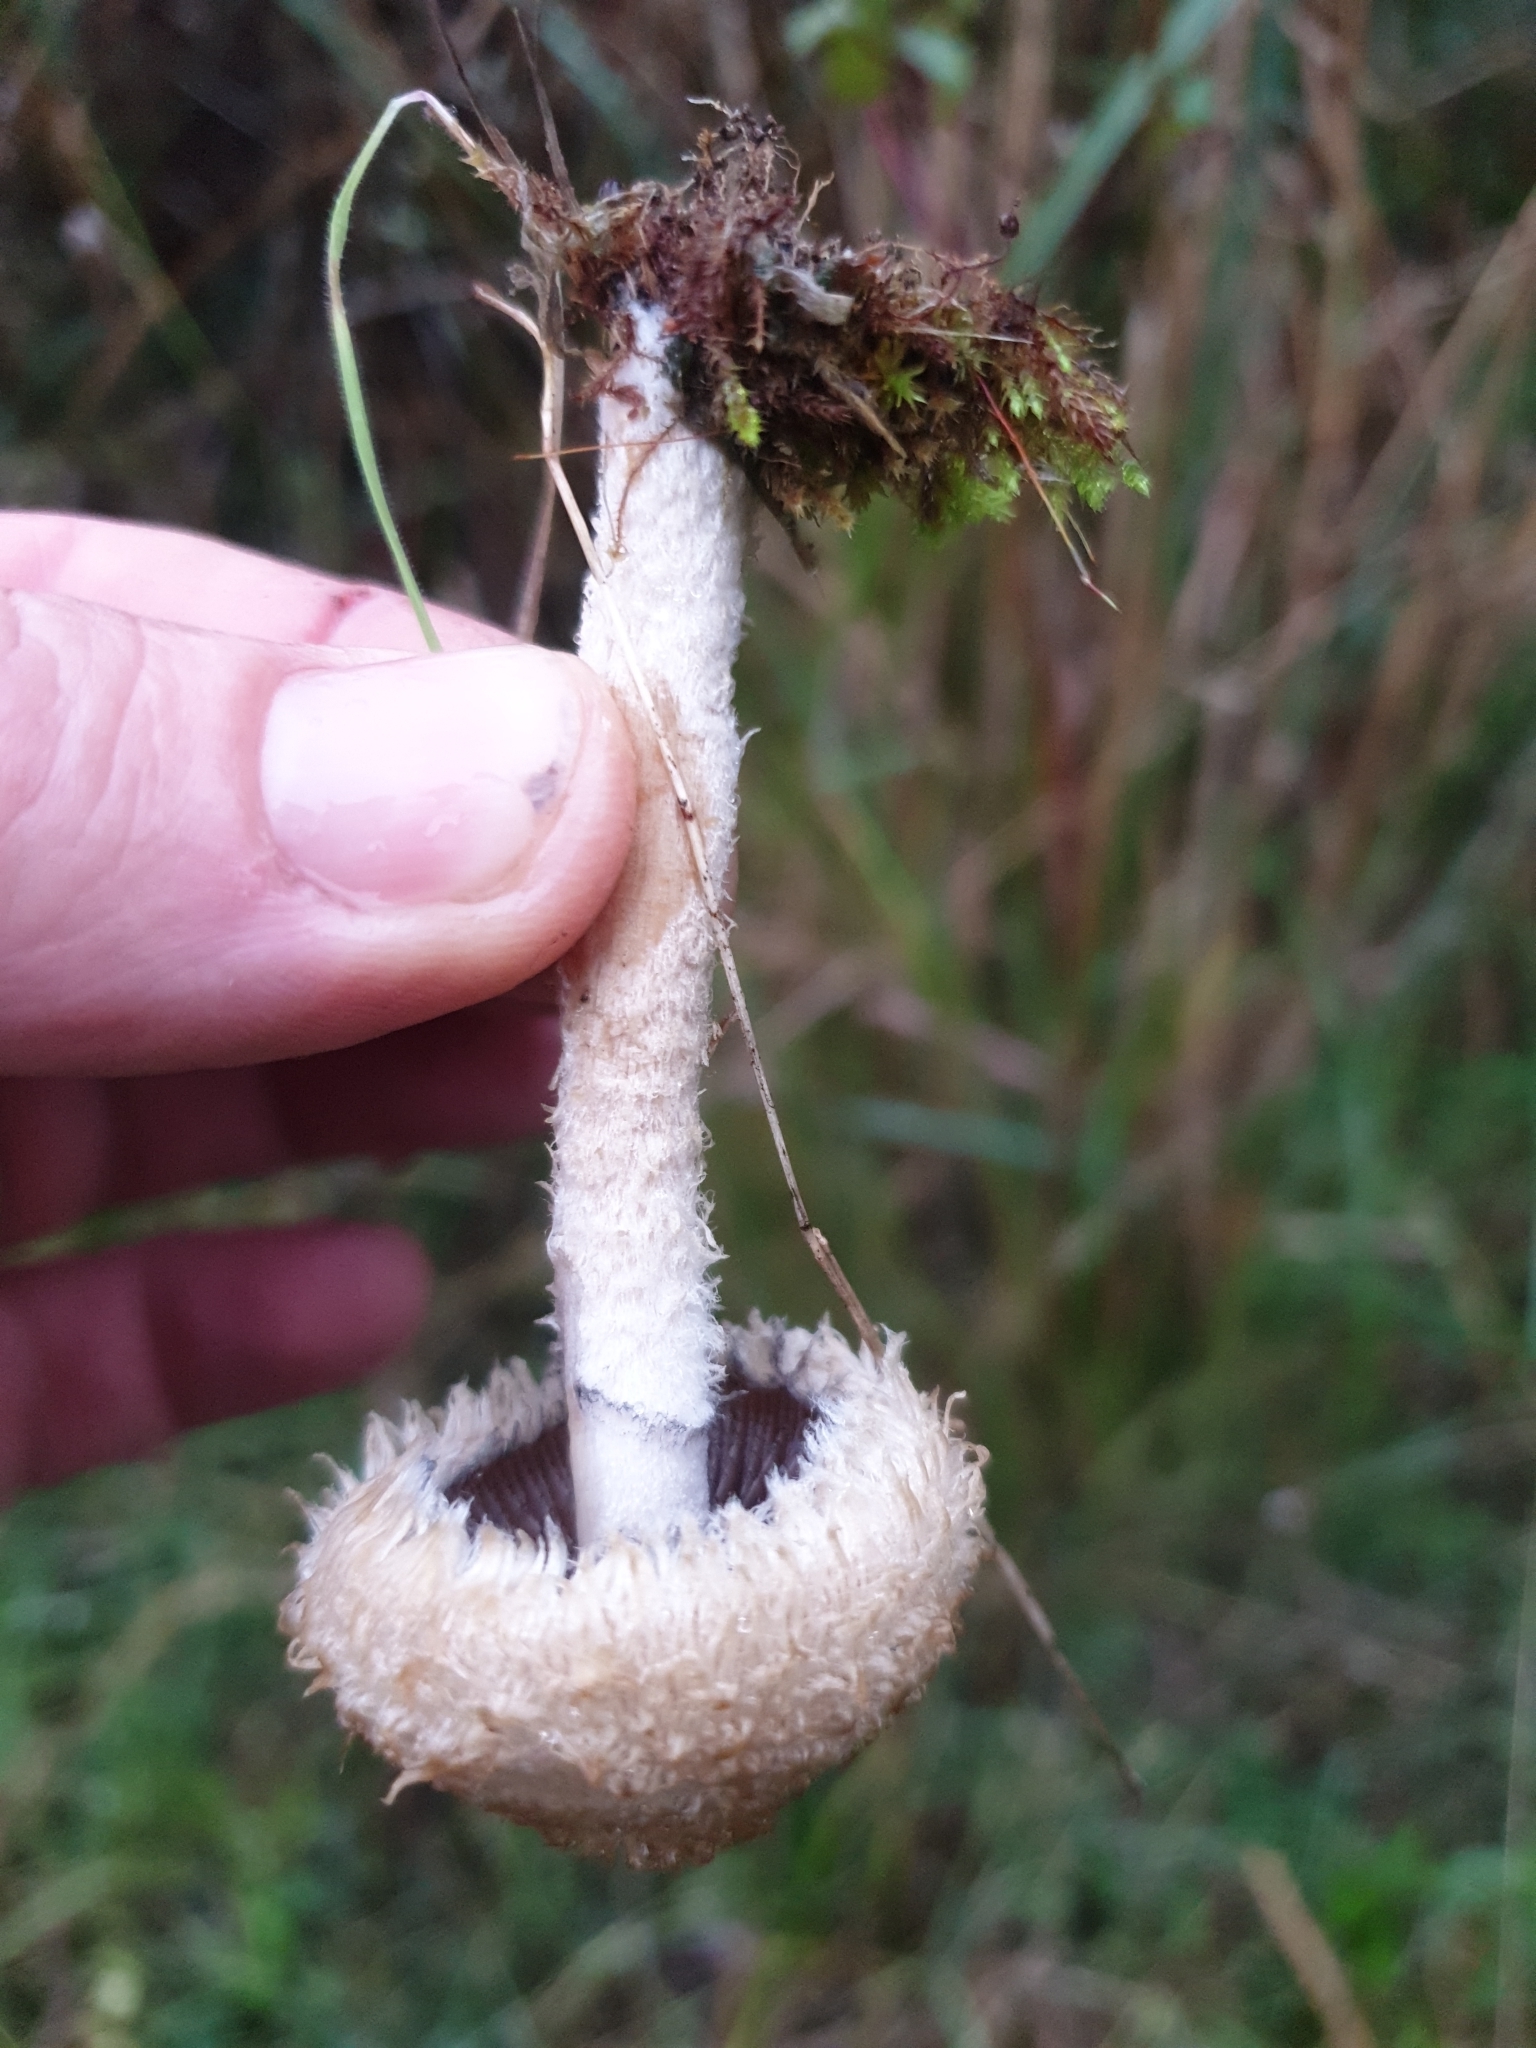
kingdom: Fungi
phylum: Basidiomycota
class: Agaricomycetes
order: Agaricales
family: Psathyrellaceae
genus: Psathyrella
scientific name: Psathyrella asperospora
